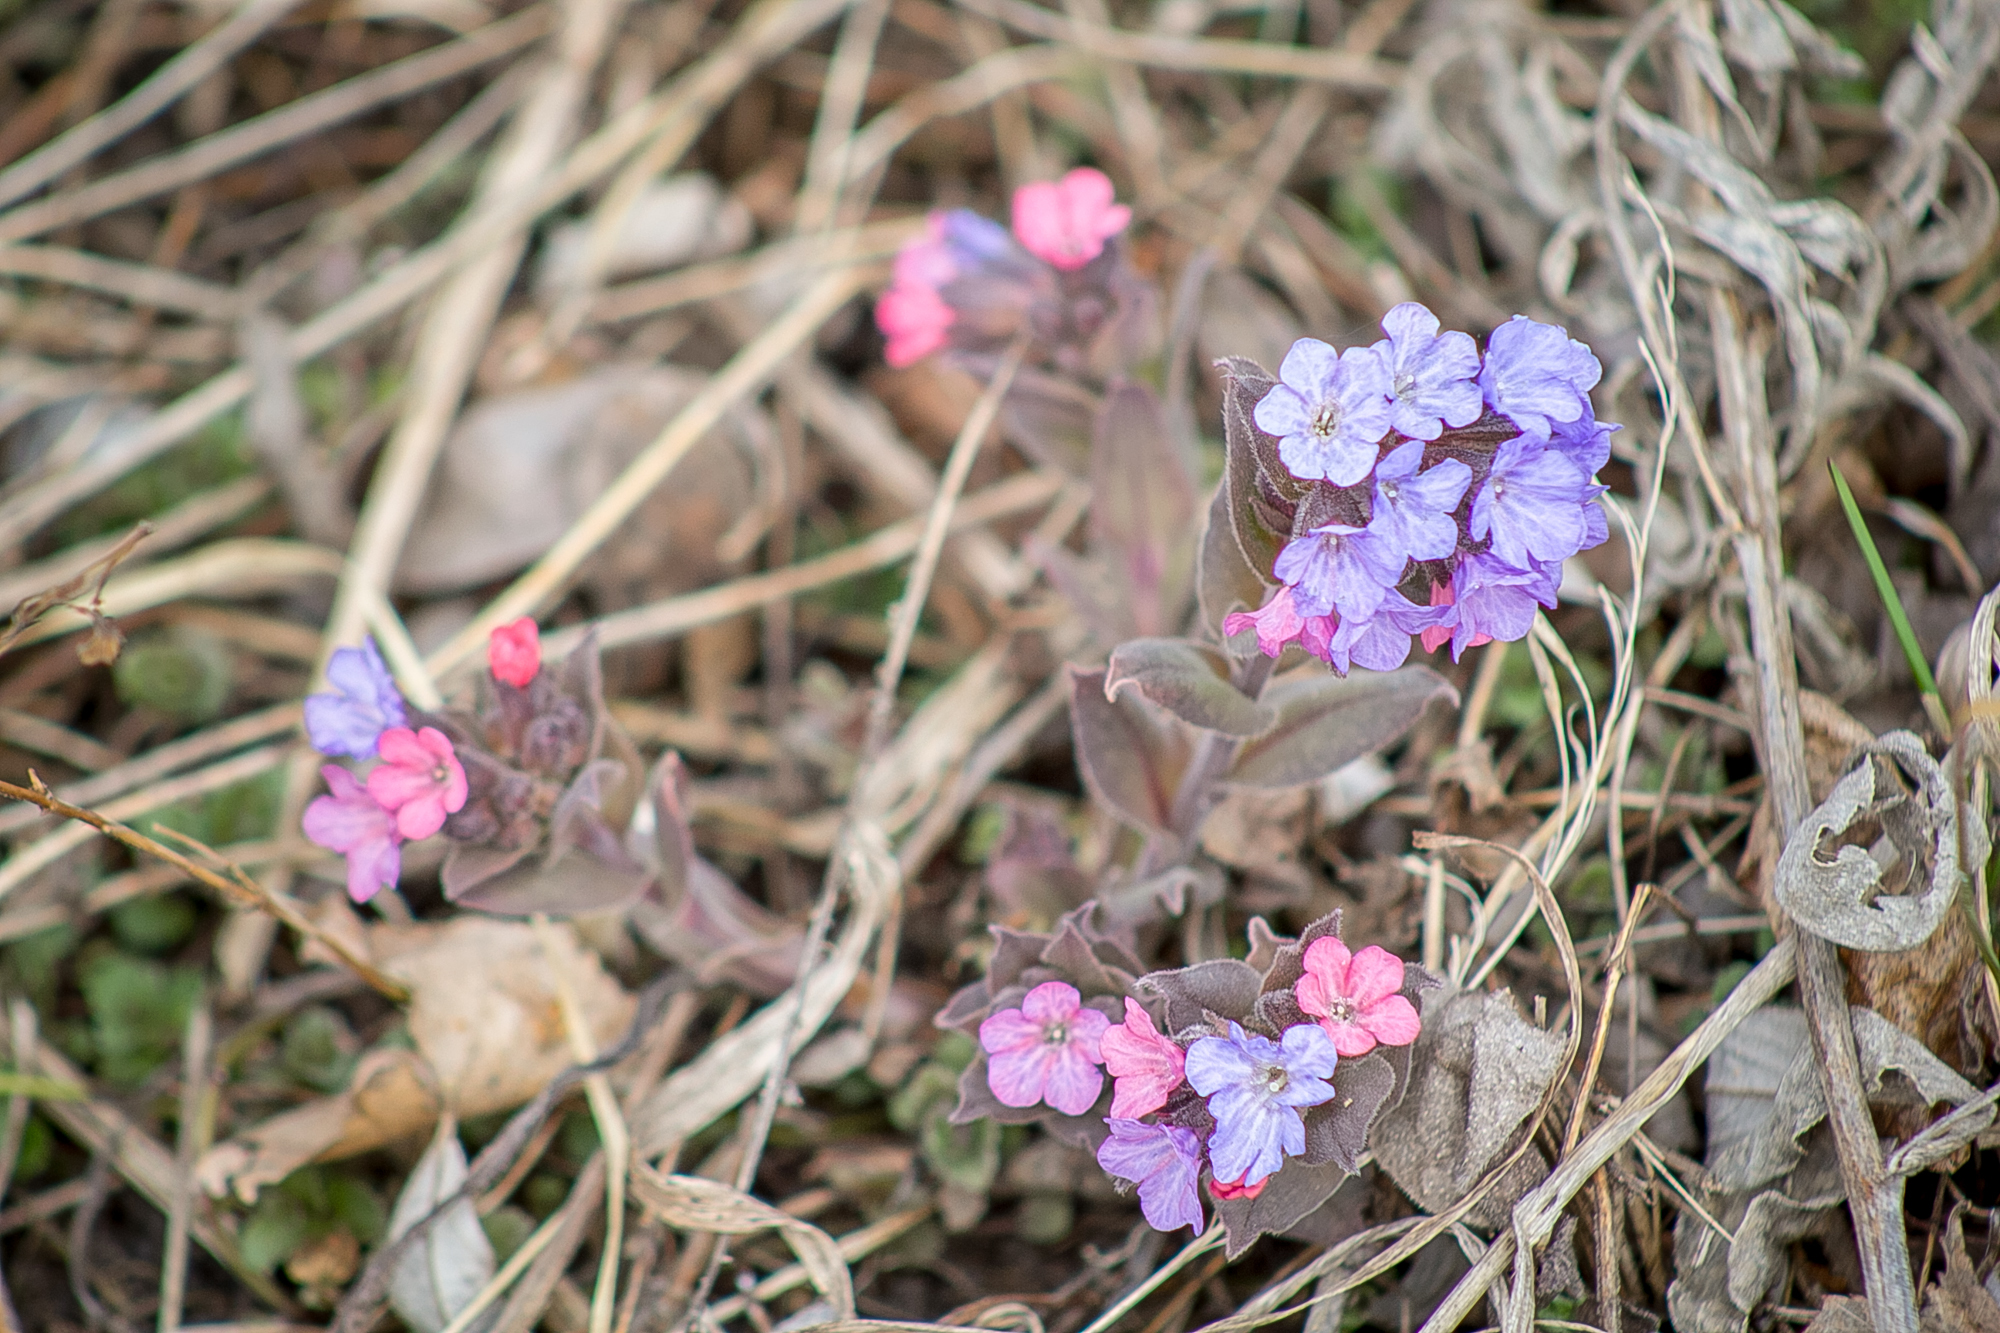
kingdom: Plantae
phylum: Tracheophyta
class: Magnoliopsida
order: Boraginales
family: Boraginaceae
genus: Pulmonaria
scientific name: Pulmonaria obscura
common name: Suffolk lungwort
